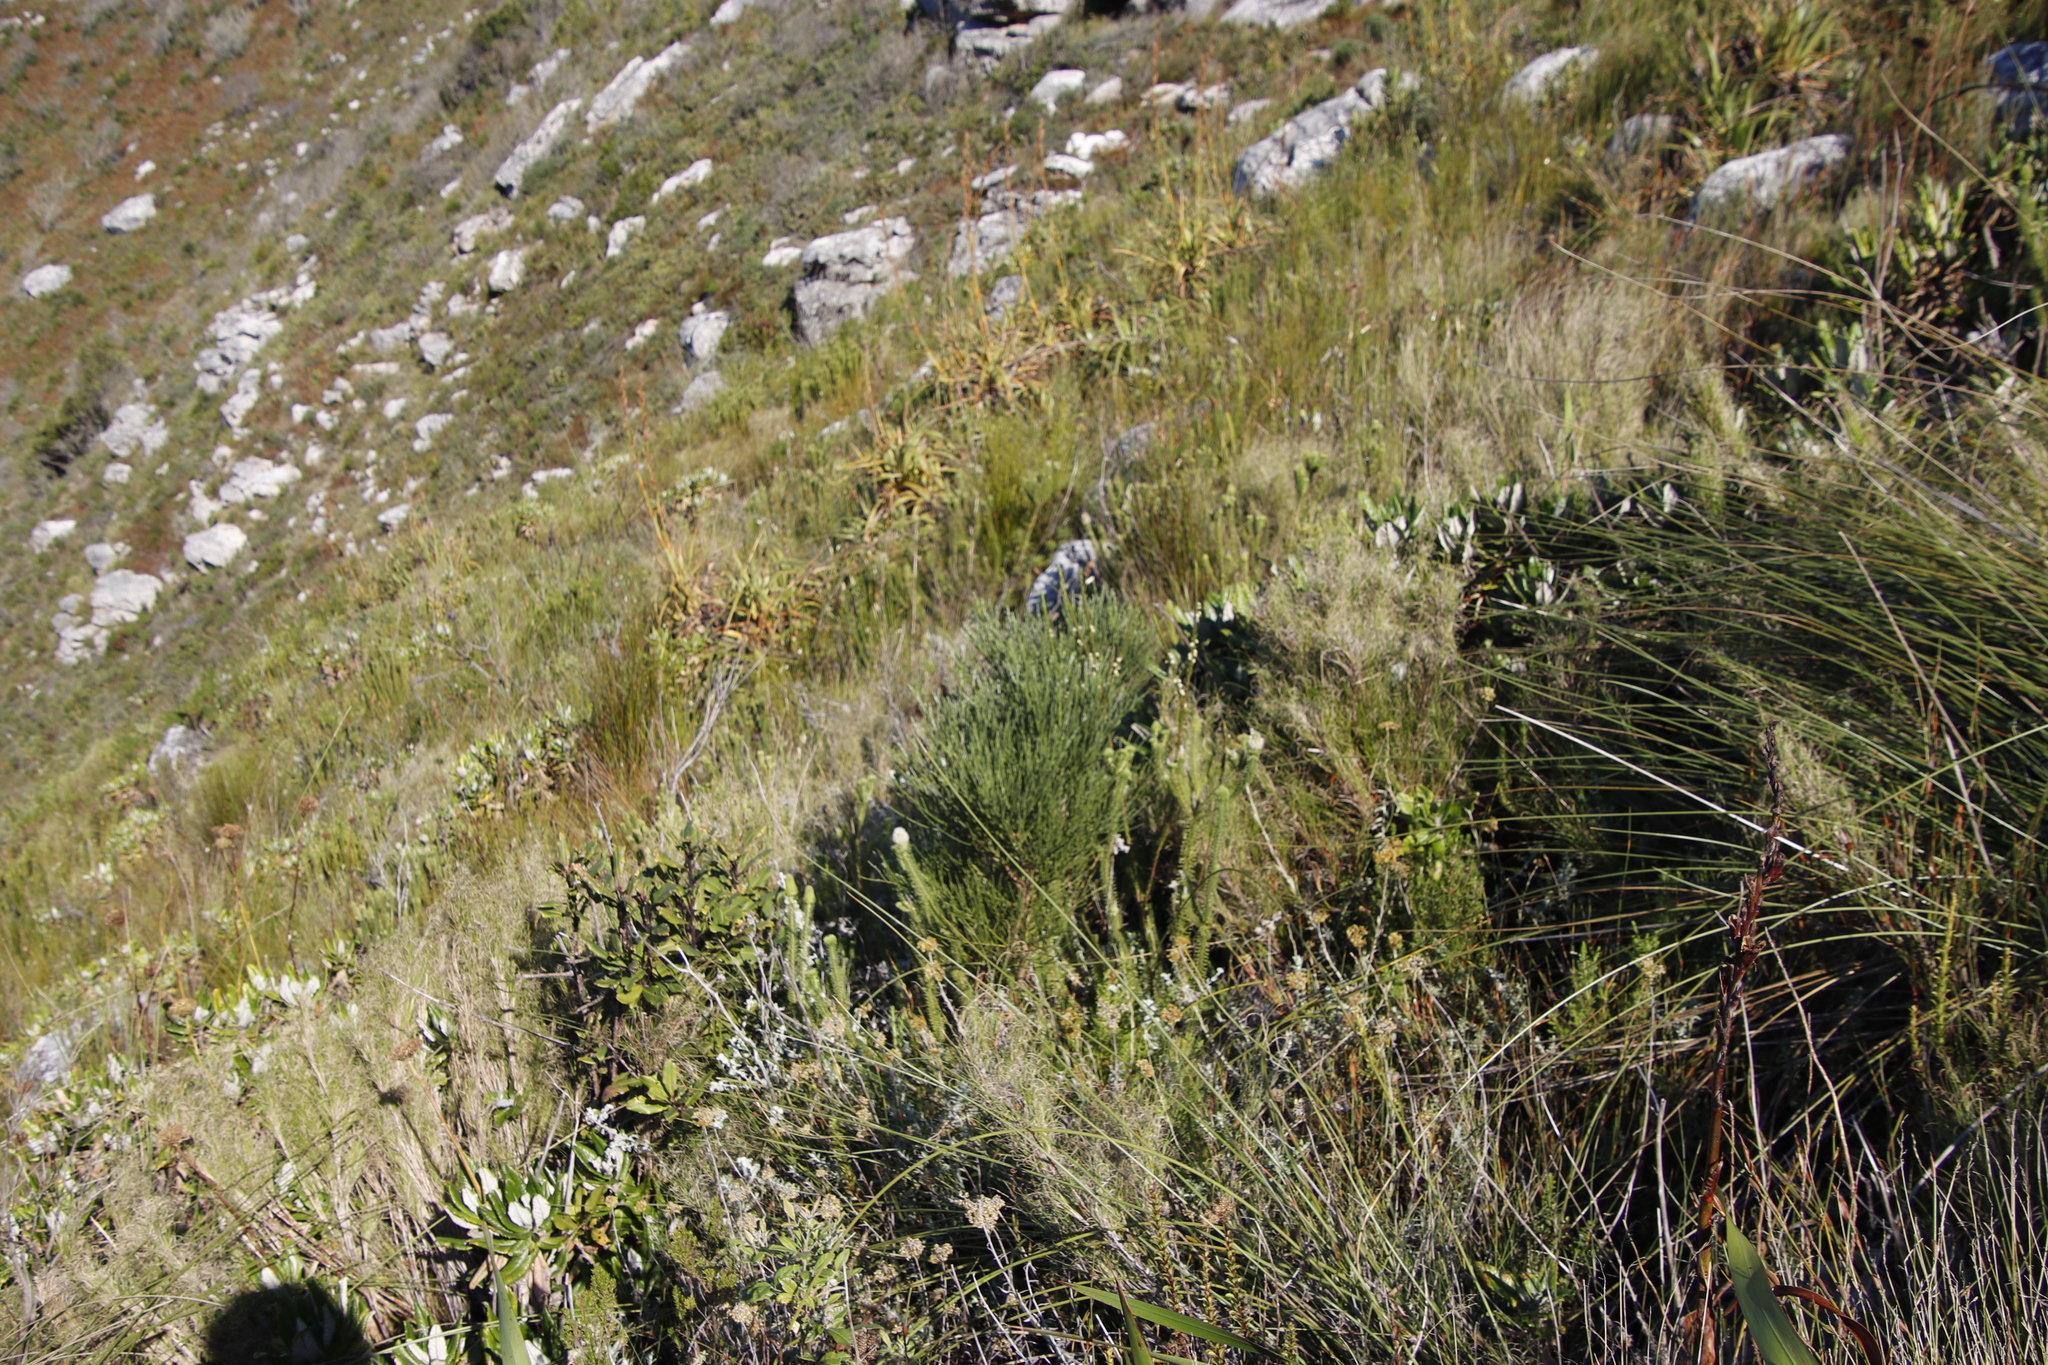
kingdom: Plantae
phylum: Tracheophyta
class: Magnoliopsida
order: Fabales
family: Fabaceae
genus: Psoralea
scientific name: Psoralea congesta
